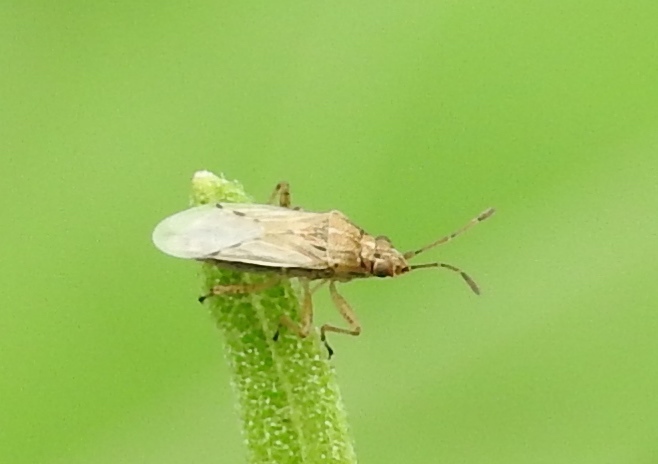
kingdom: Animalia
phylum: Arthropoda
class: Insecta
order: Hemiptera
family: Lygaeidae
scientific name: Lygaeidae
